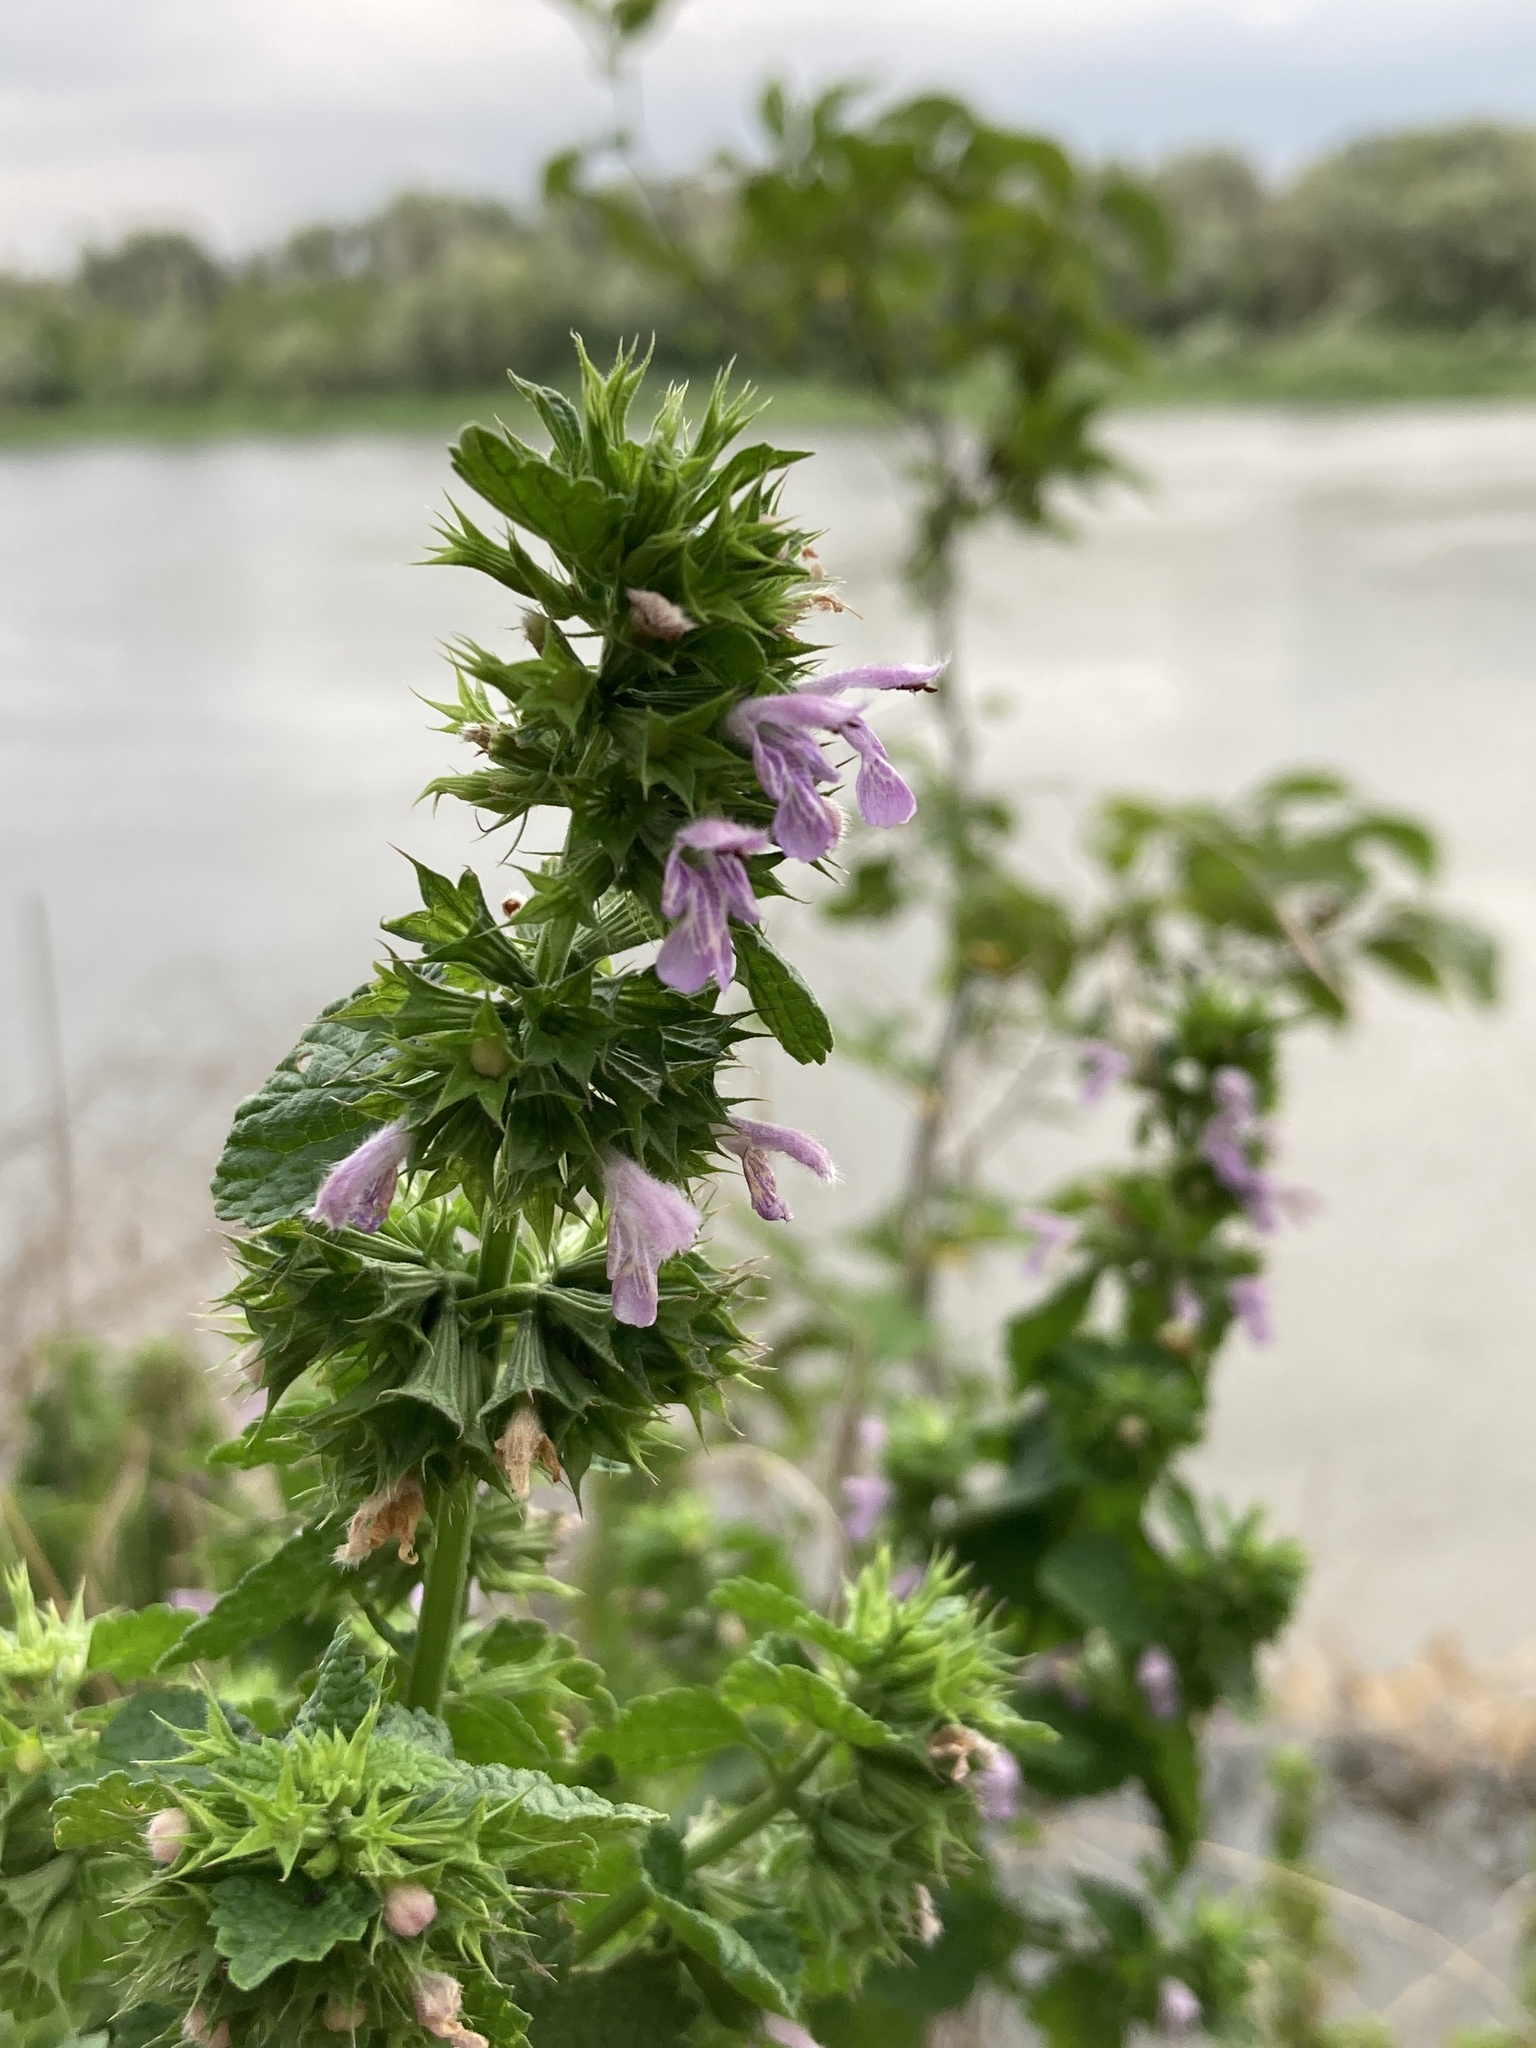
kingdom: Plantae
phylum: Tracheophyta
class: Magnoliopsida
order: Lamiales
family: Lamiaceae
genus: Ballota
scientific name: Ballota nigra
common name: Black horehound
